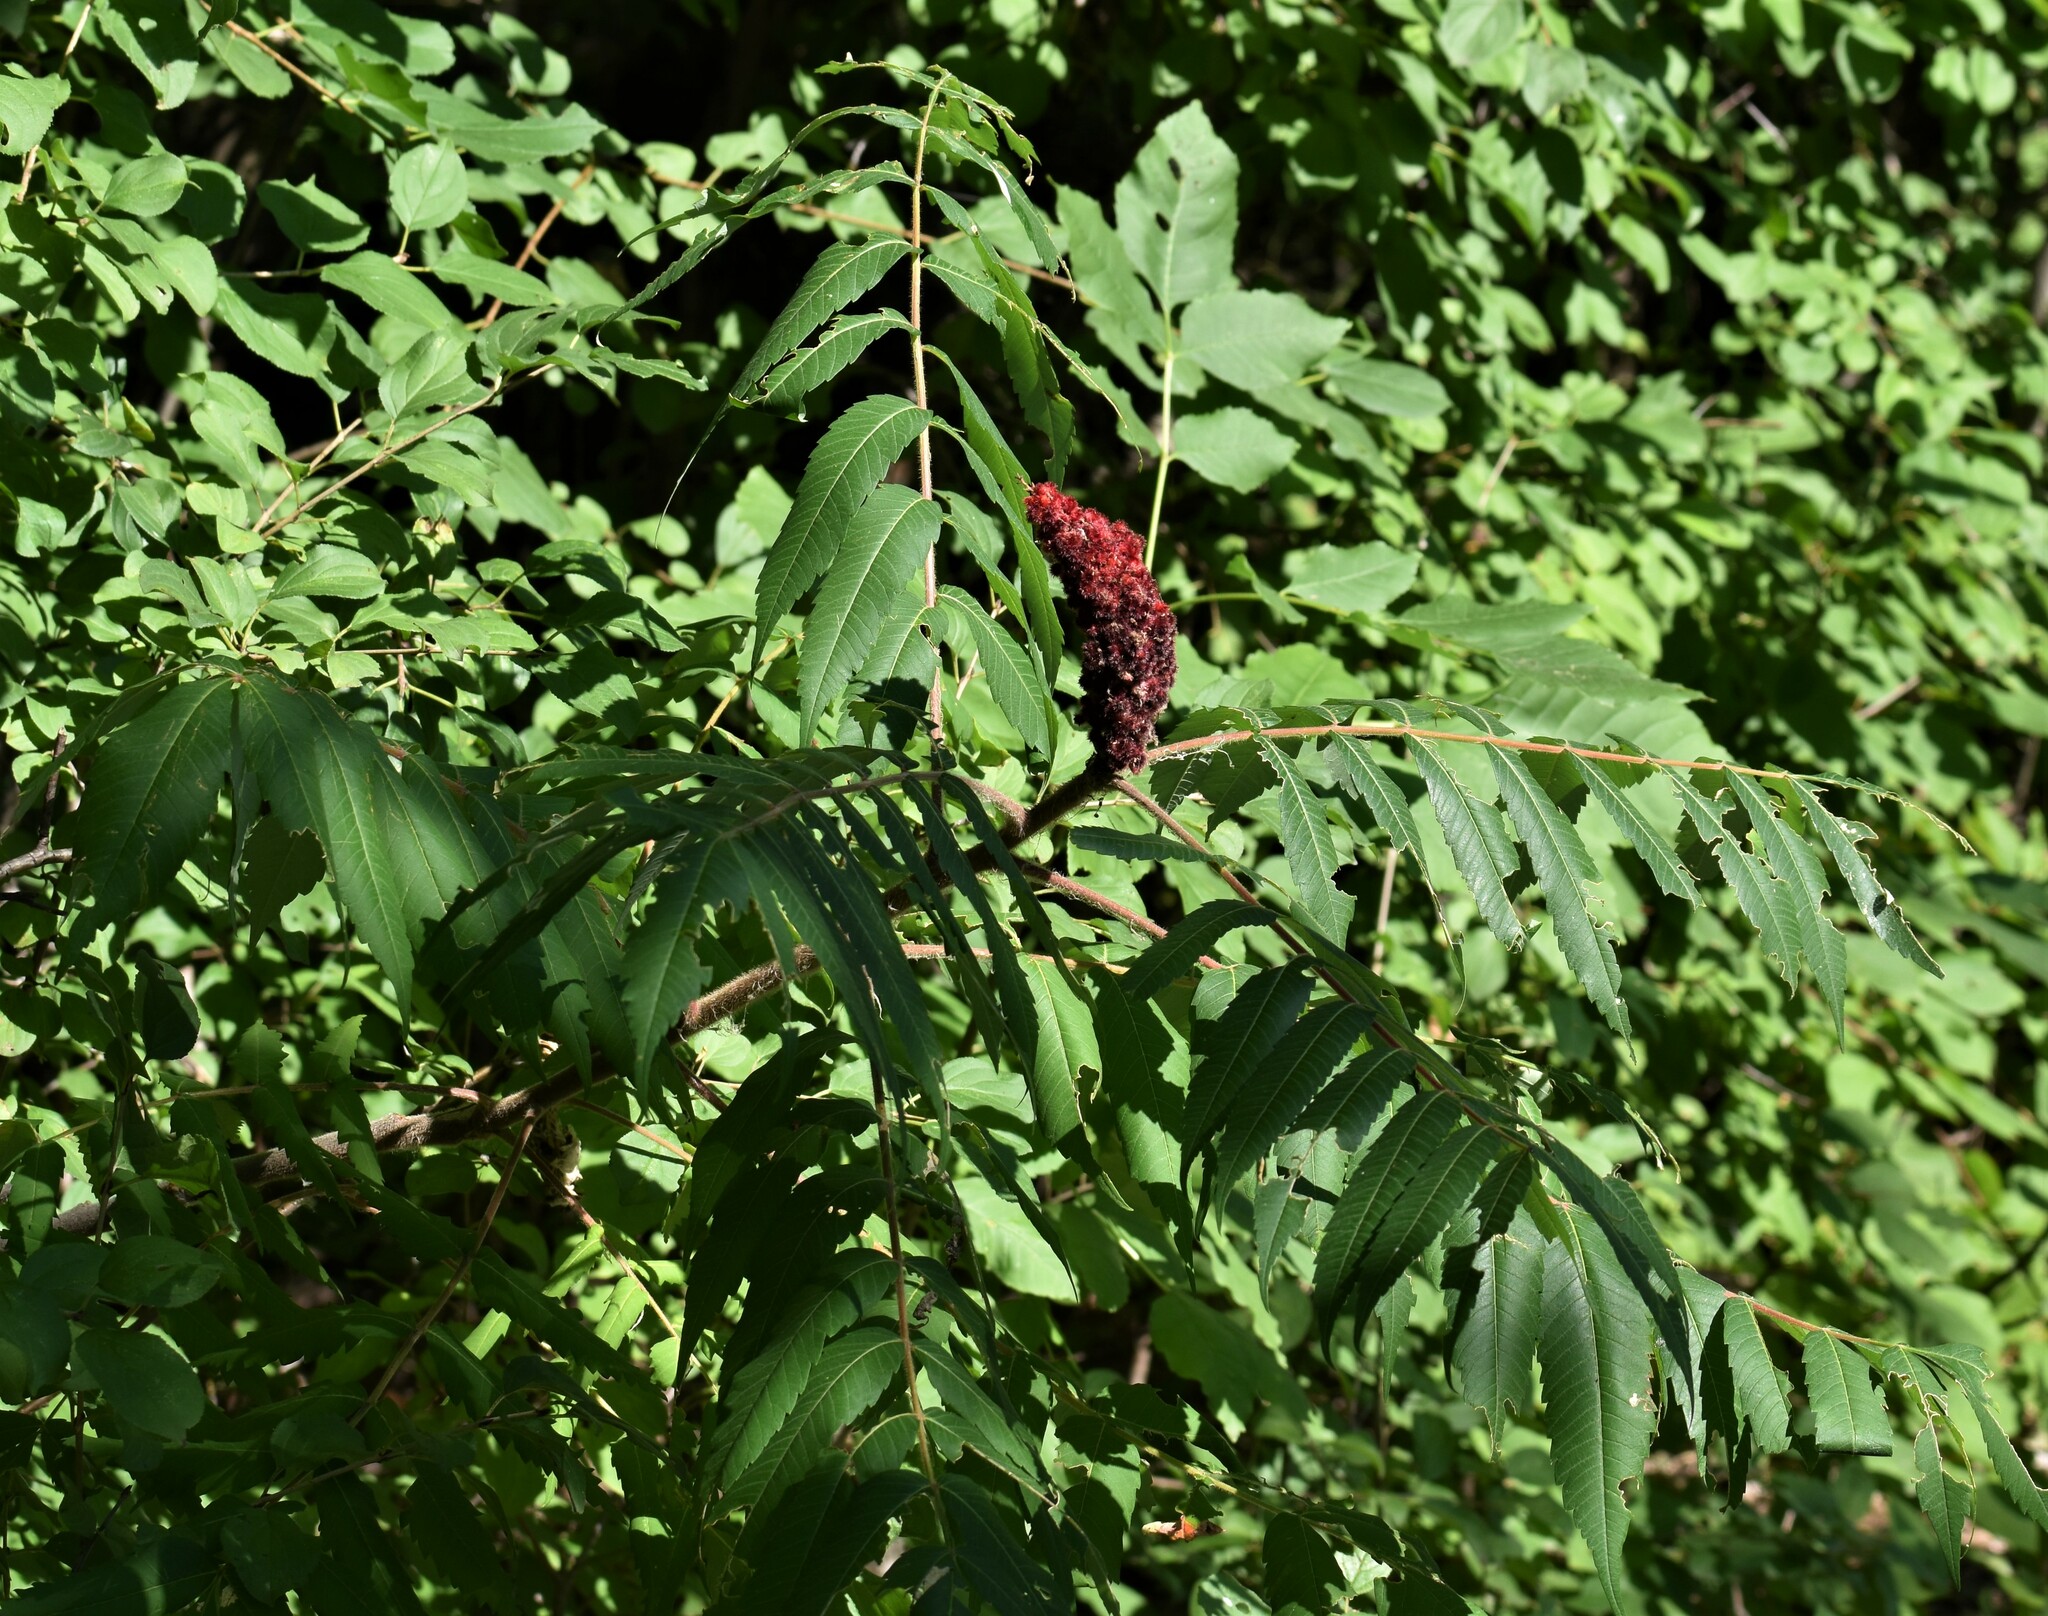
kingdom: Plantae
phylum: Tracheophyta
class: Magnoliopsida
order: Sapindales
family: Anacardiaceae
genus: Rhus
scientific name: Rhus typhina
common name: Staghorn sumac
